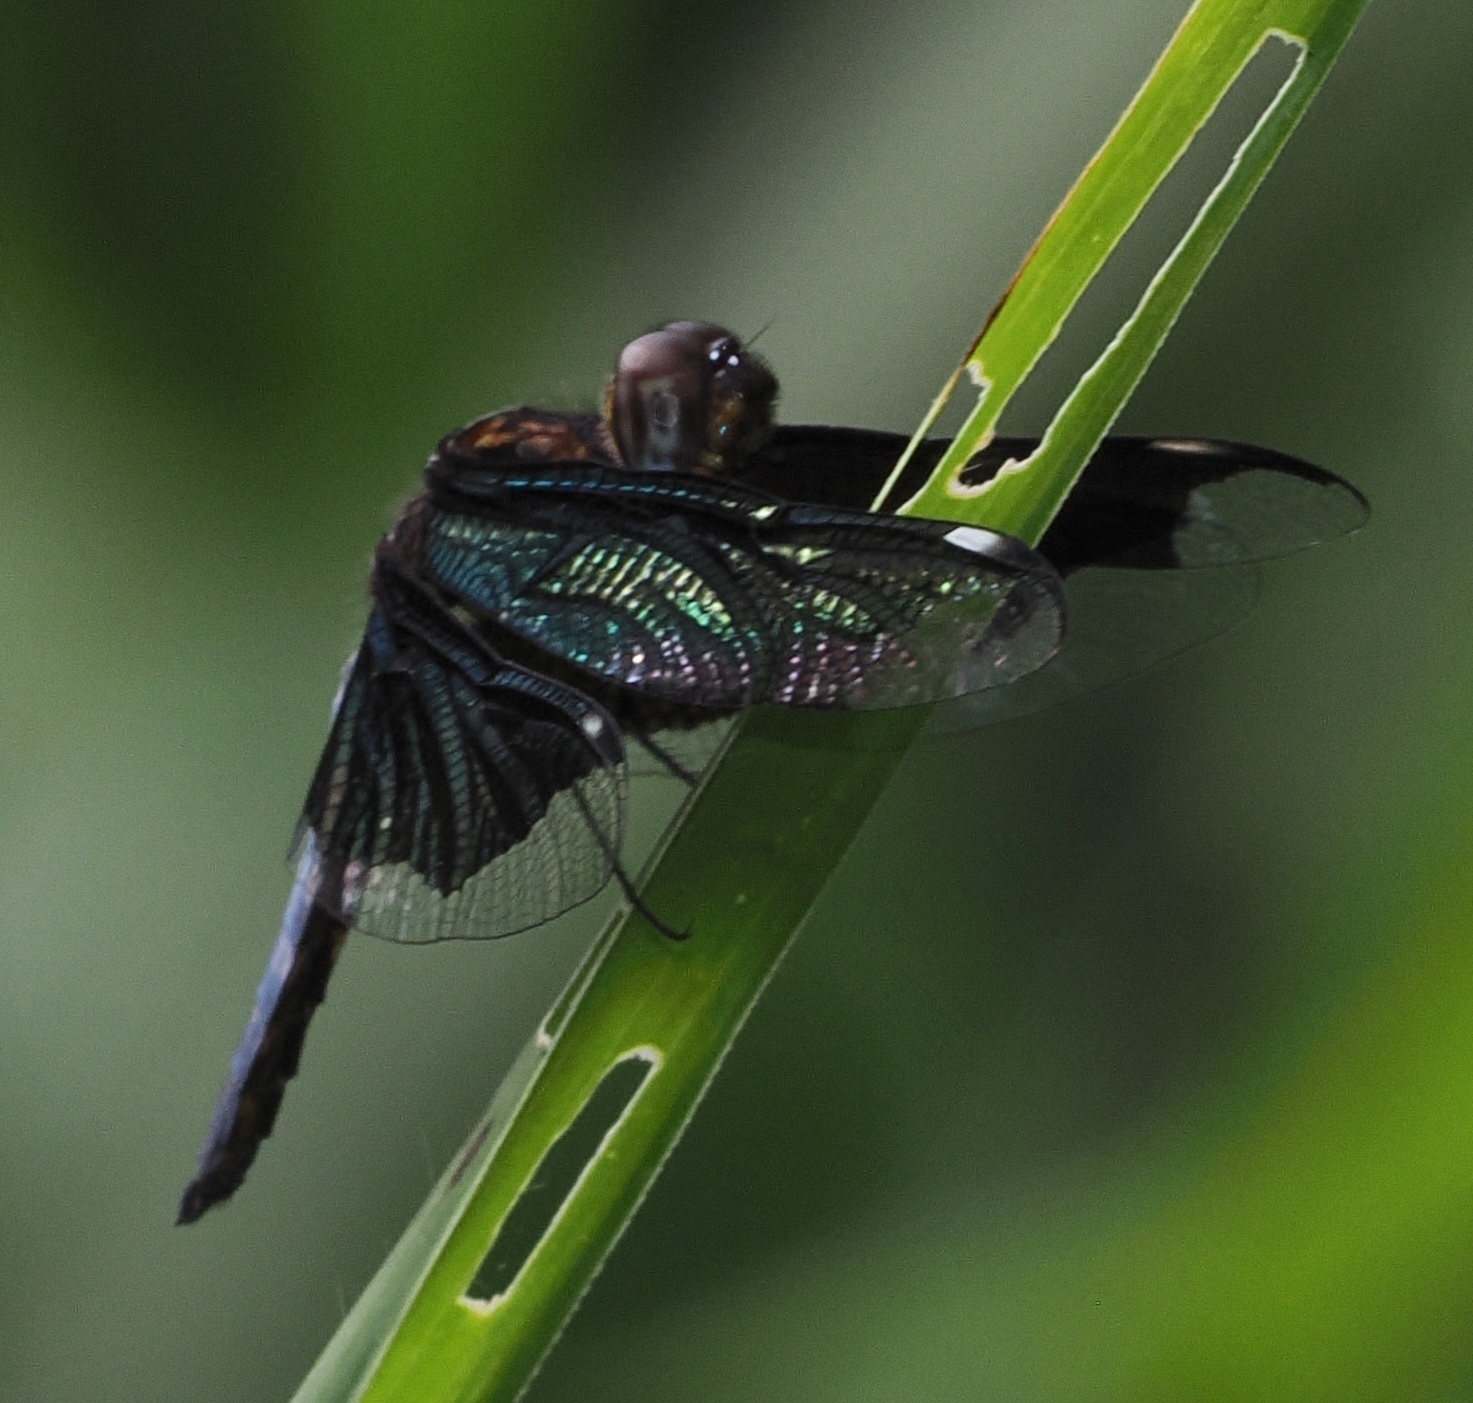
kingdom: Animalia
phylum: Arthropoda
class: Insecta
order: Odonata
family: Libellulidae
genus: Palpopleura
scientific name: Palpopleura lucia
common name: Lucia widow
